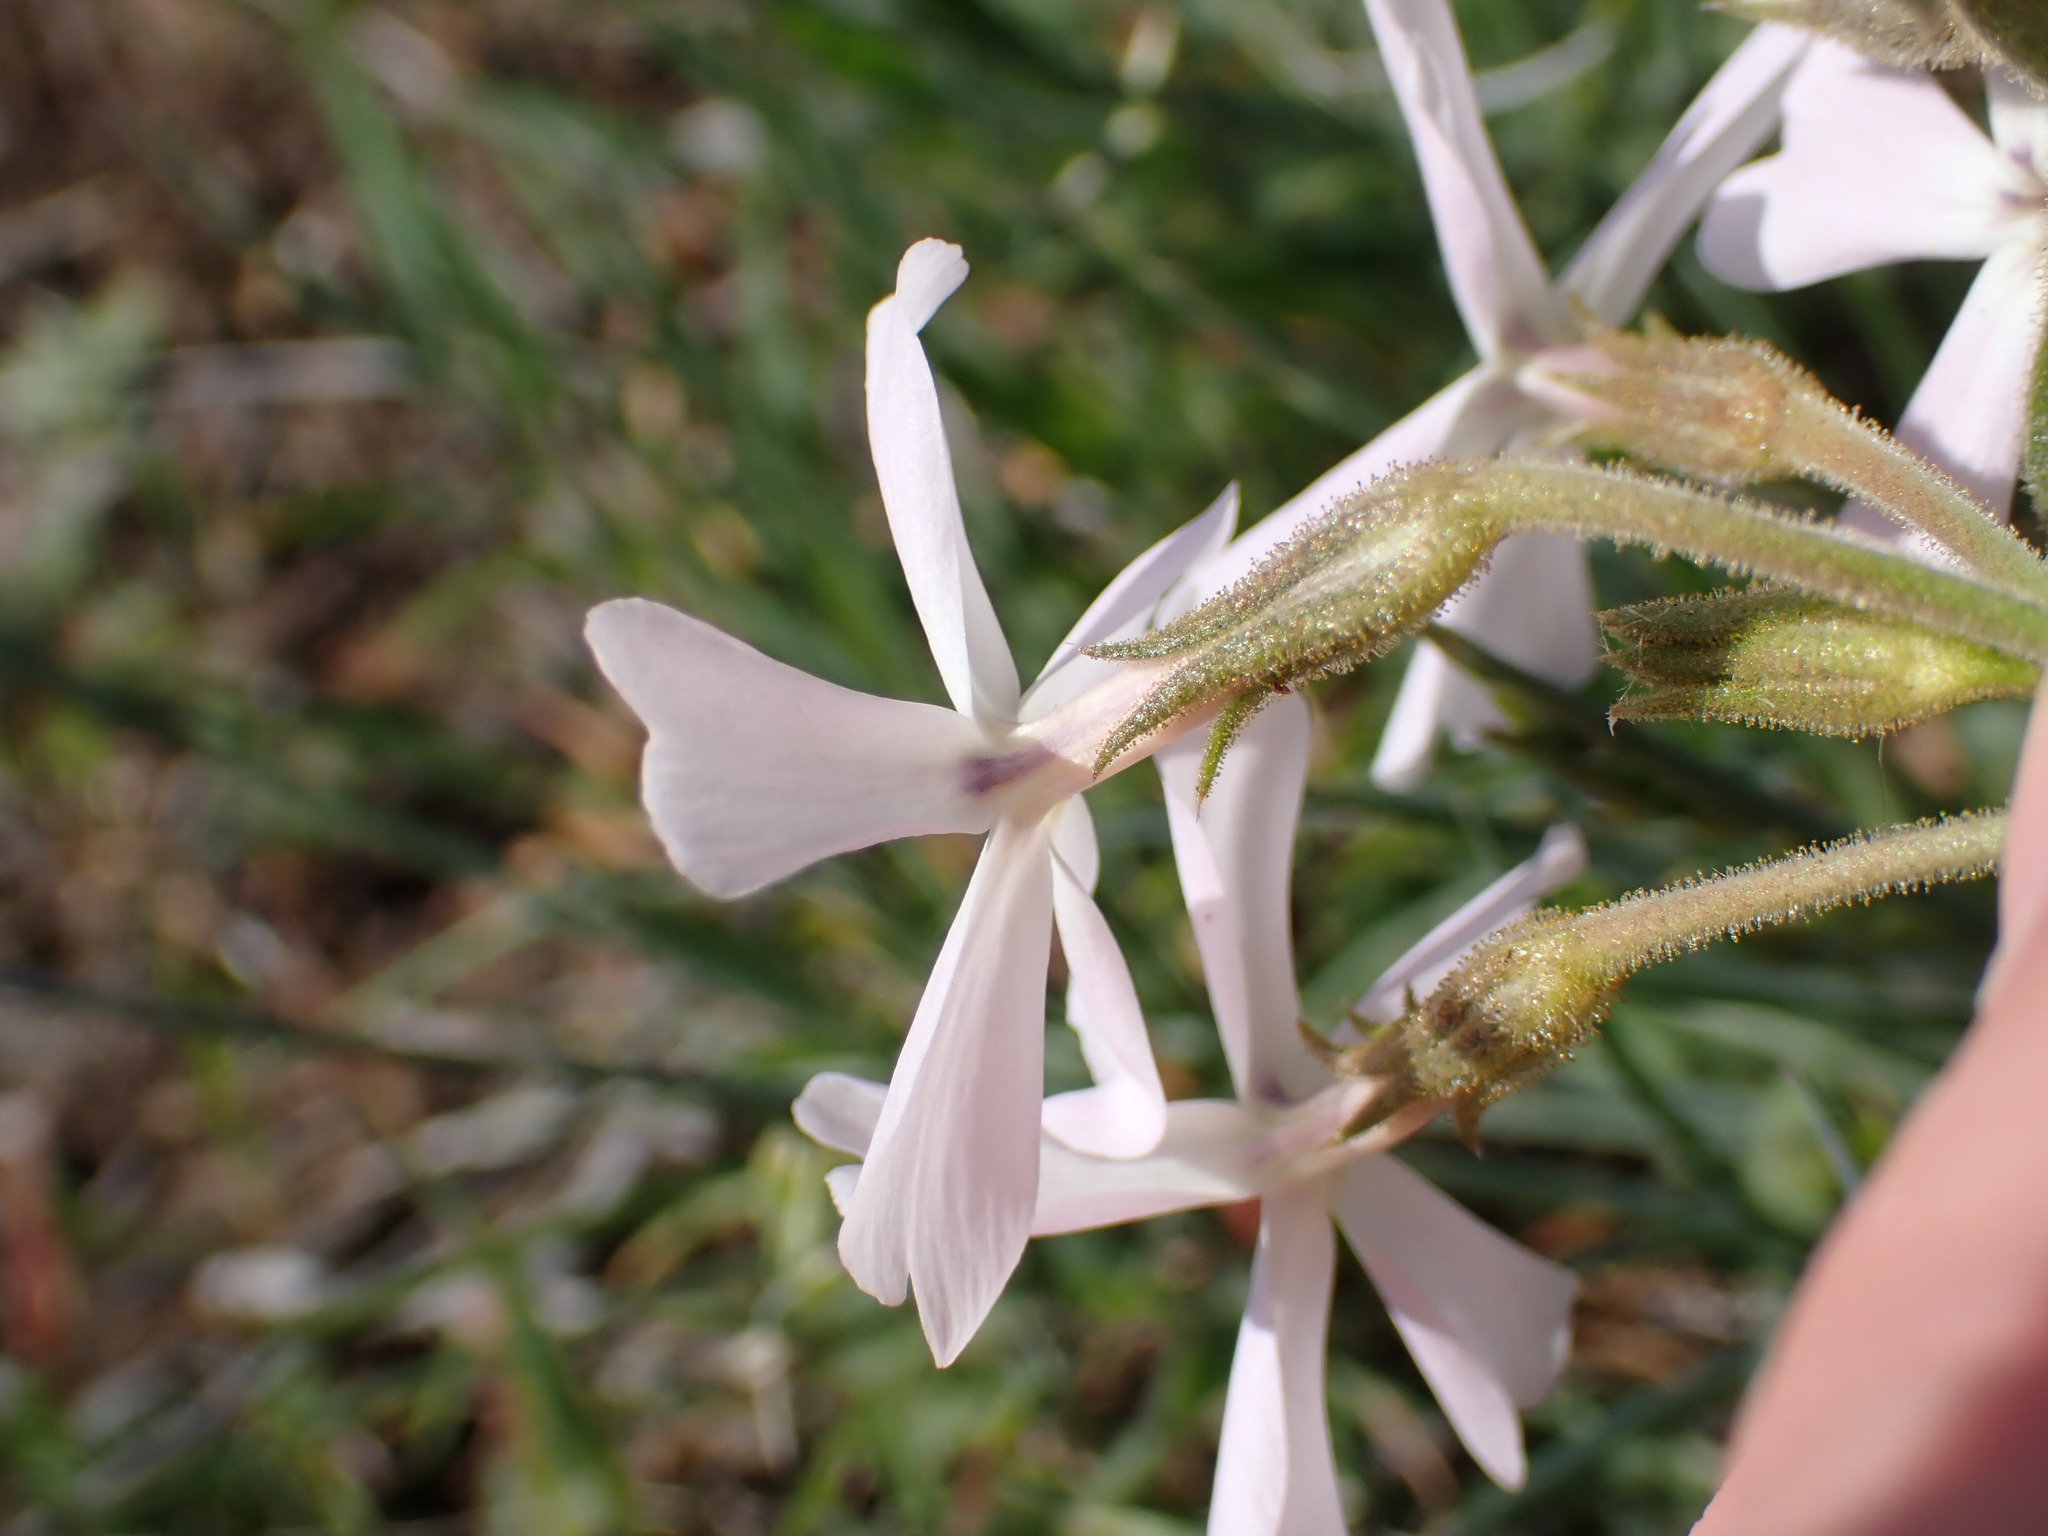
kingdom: Plantae
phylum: Tracheophyta
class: Magnoliopsida
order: Ericales
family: Polemoniaceae
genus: Phlox
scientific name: Phlox speciosa
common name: Bush phlox
